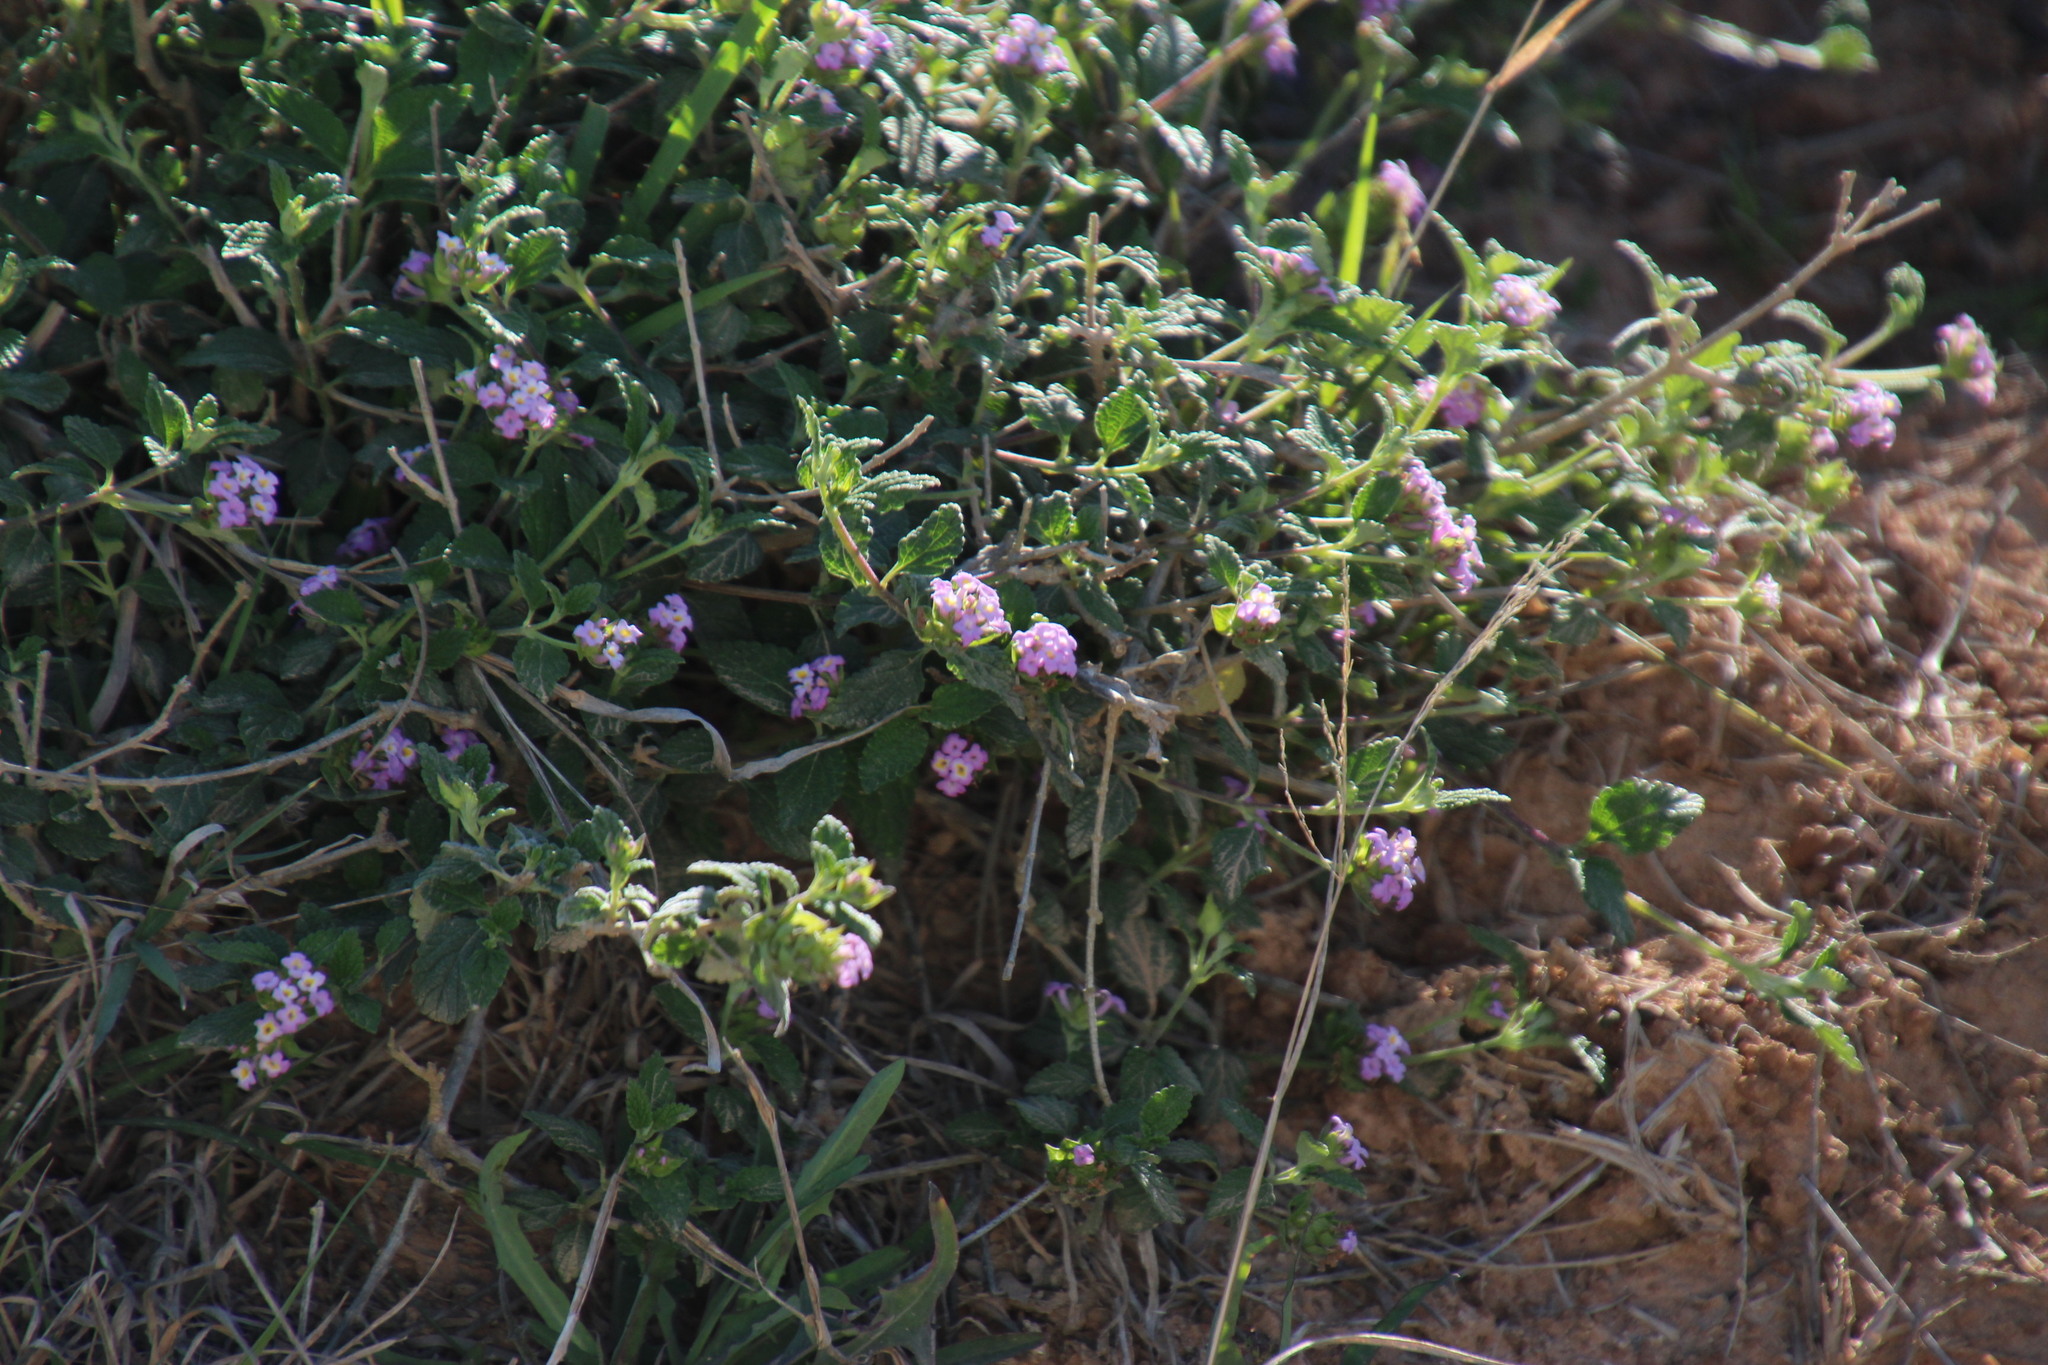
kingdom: Plantae
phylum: Tracheophyta
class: Magnoliopsida
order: Lamiales
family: Verbenaceae
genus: Lantana
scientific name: Lantana rugosa
